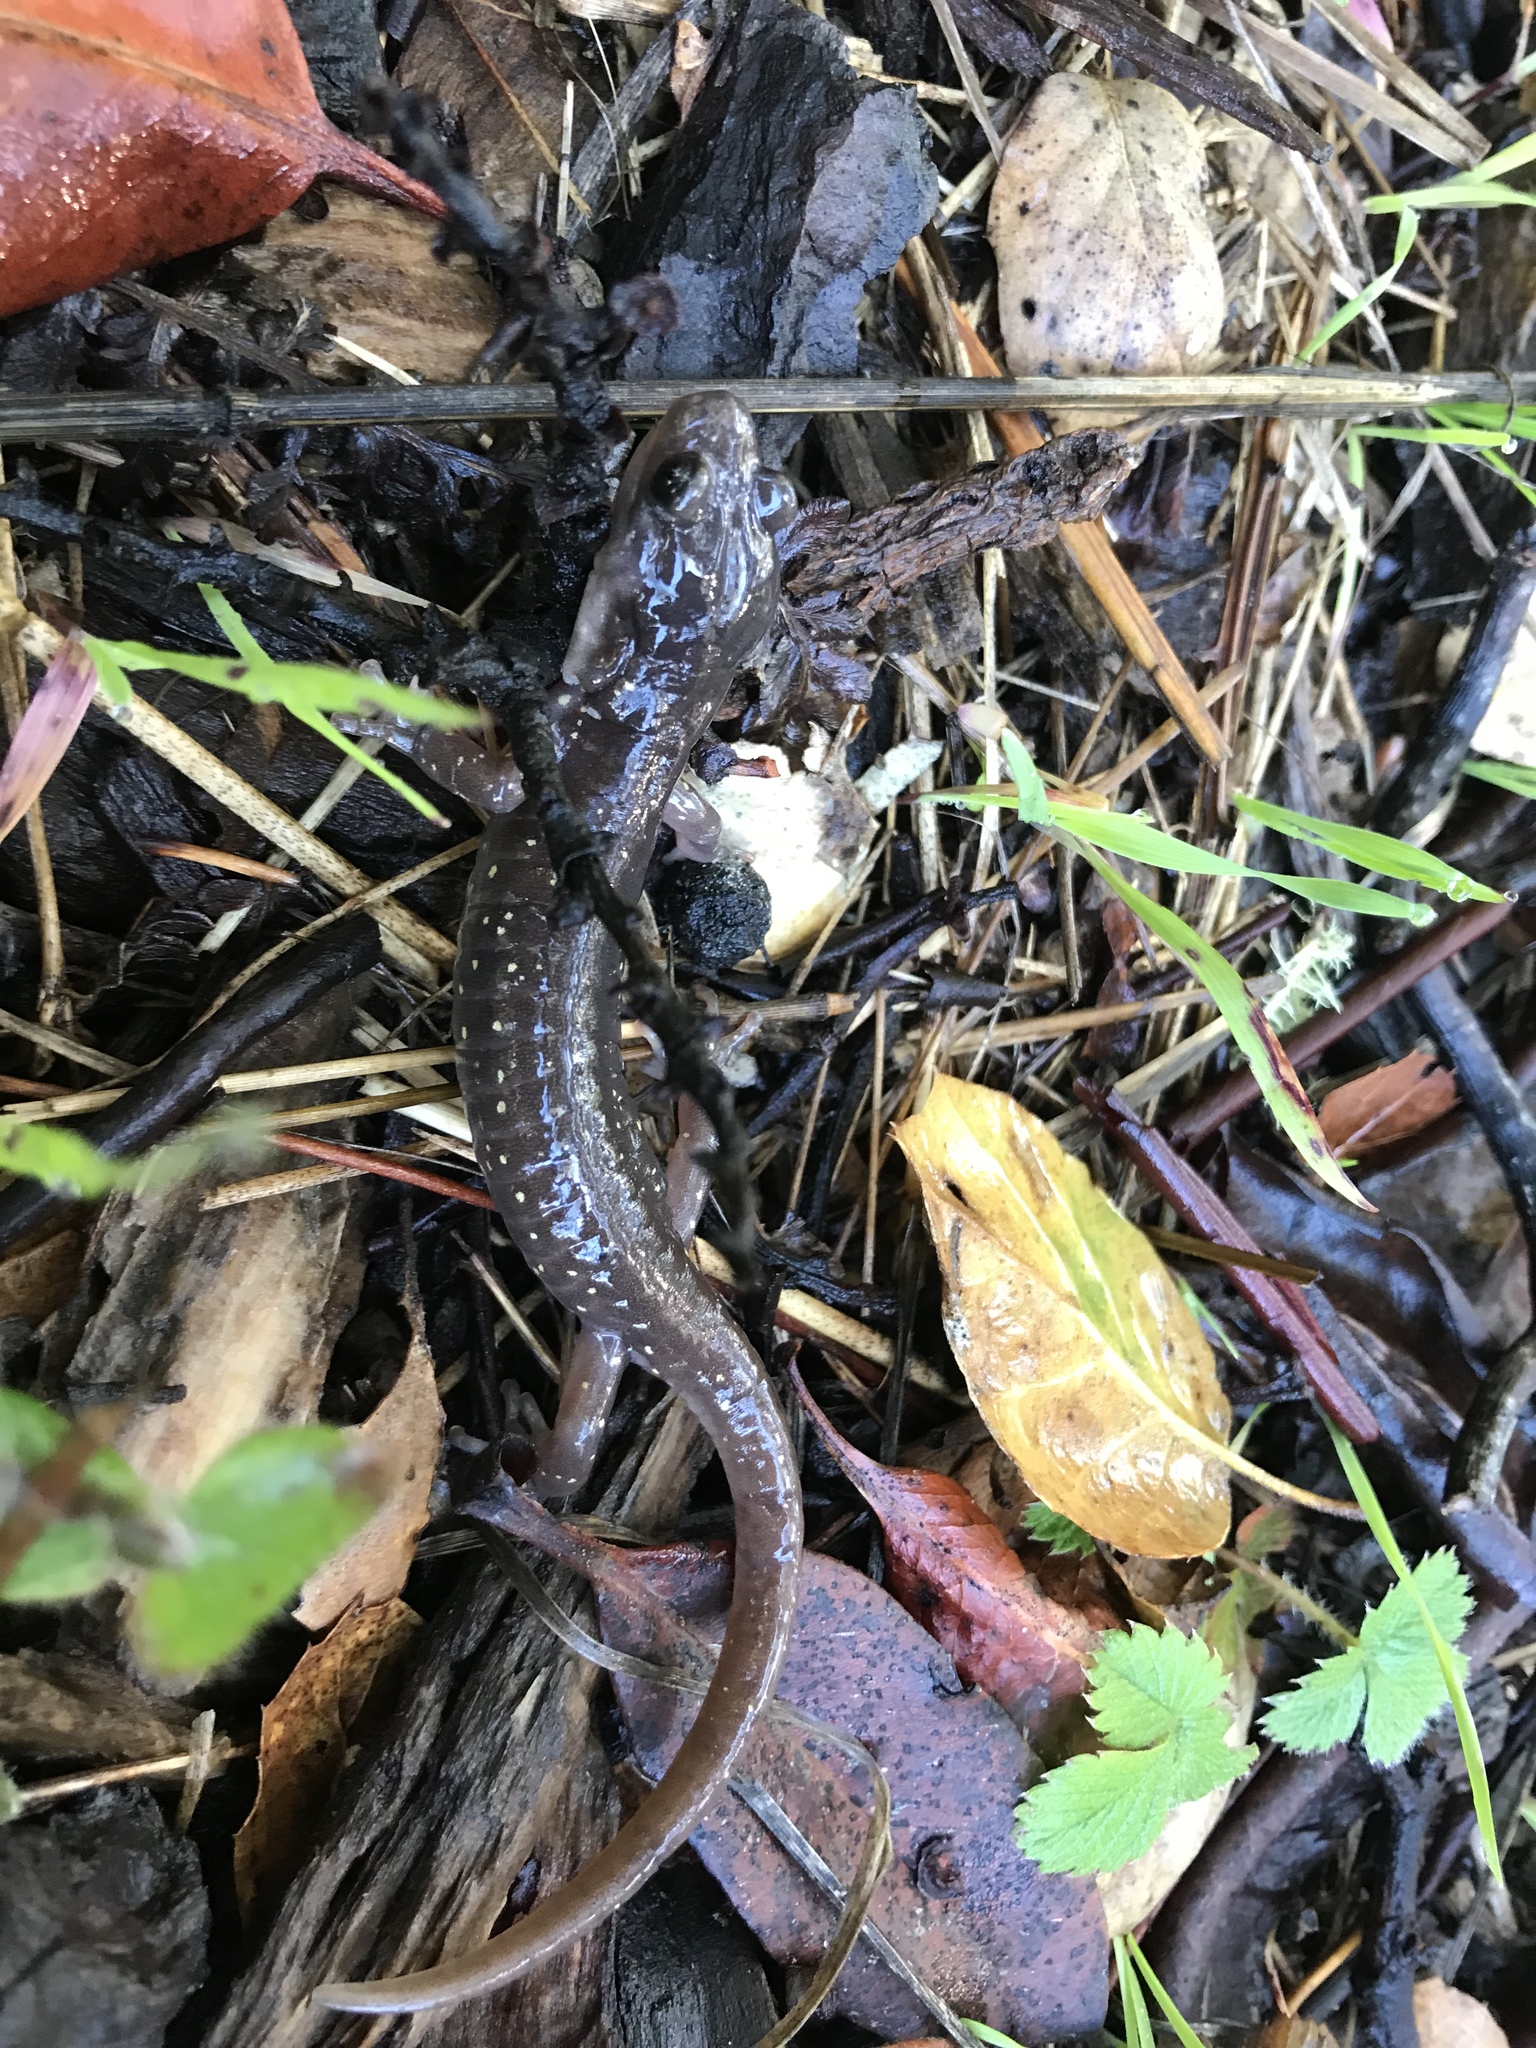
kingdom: Animalia
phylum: Chordata
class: Amphibia
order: Caudata
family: Plethodontidae
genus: Aneides
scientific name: Aneides lugubris
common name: Arboreal salamander
